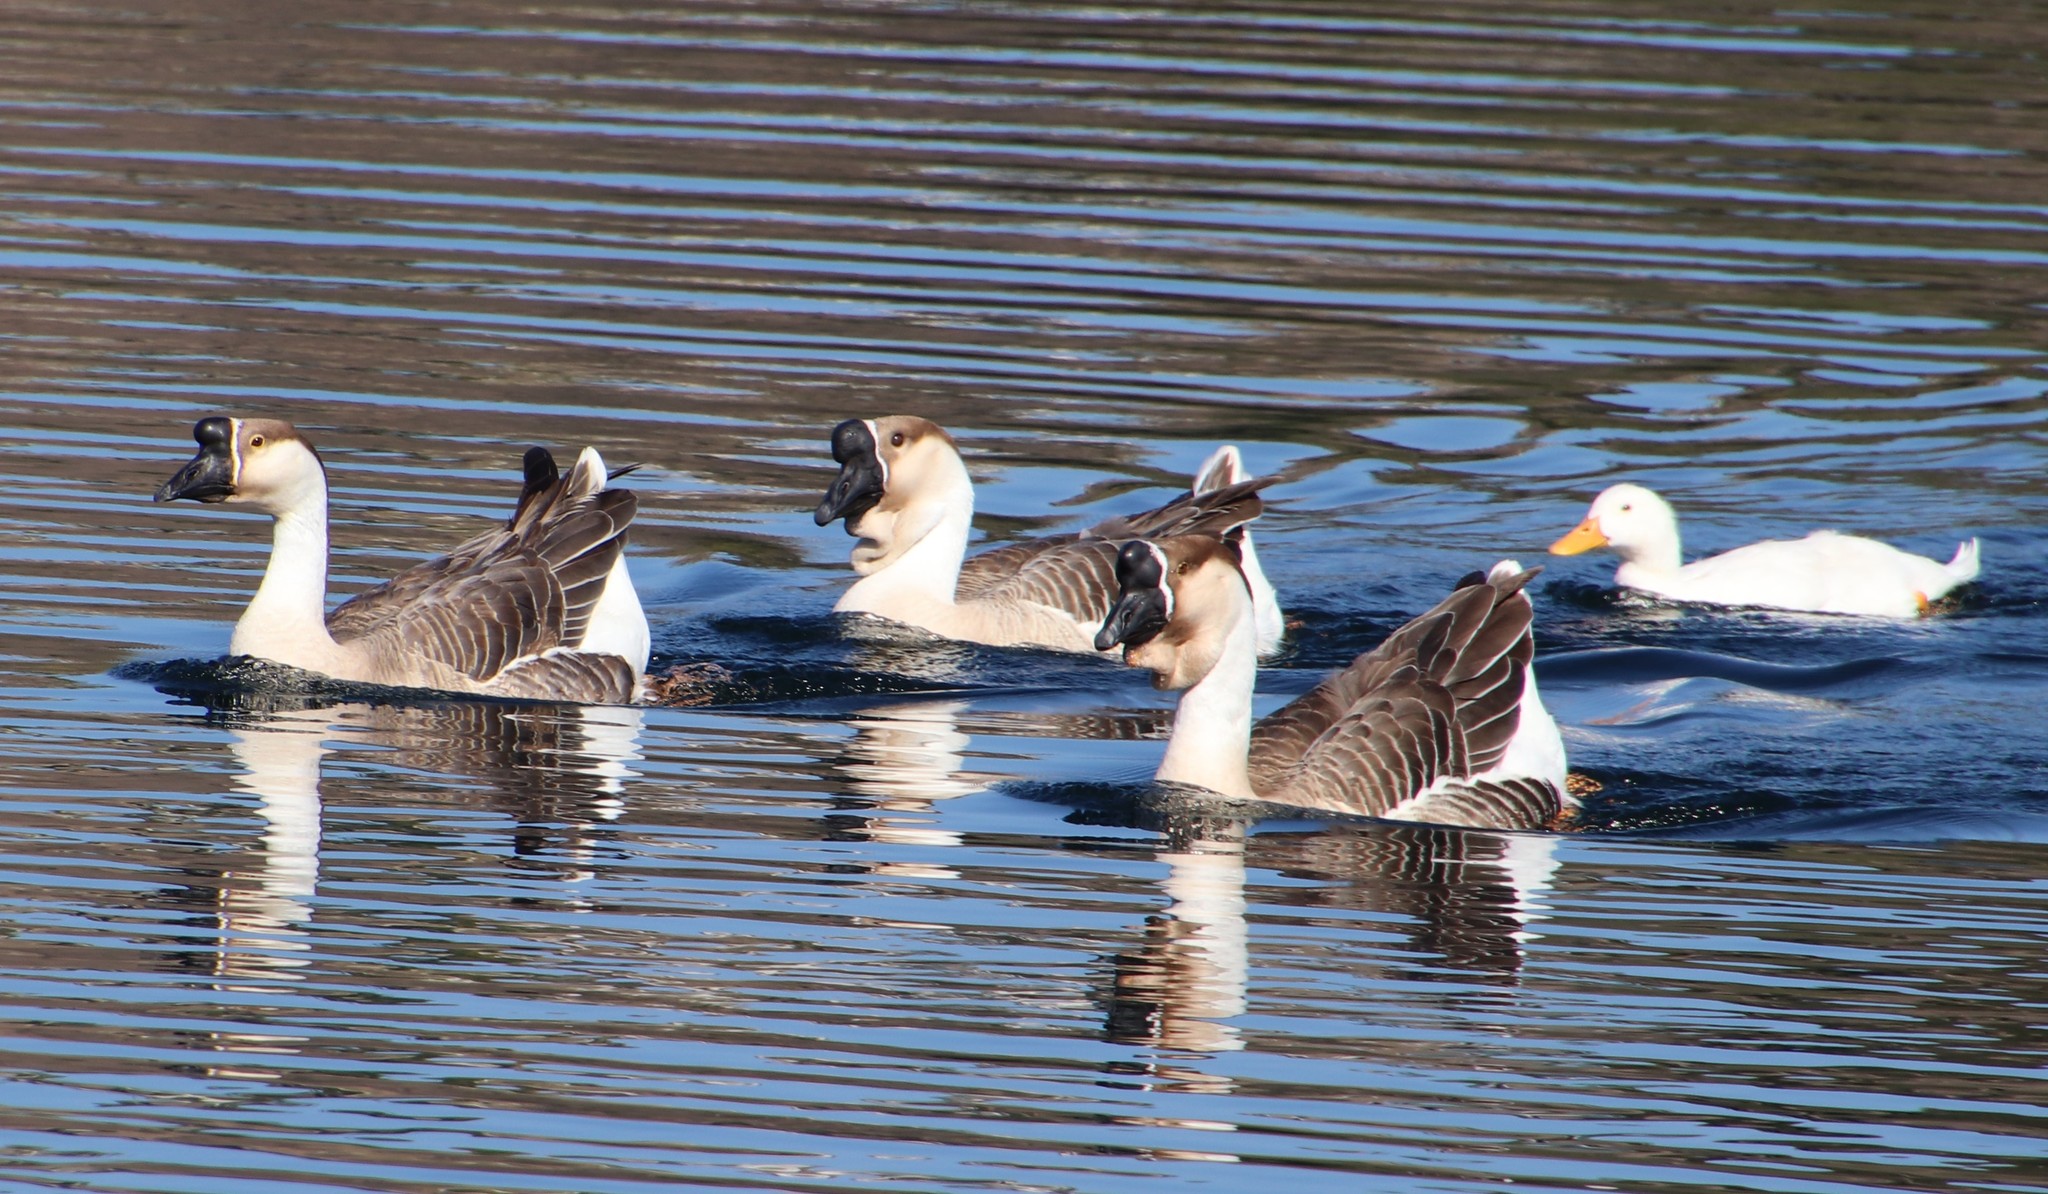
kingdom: Animalia
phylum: Chordata
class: Aves
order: Anseriformes
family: Anatidae
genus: Anser
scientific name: Anser cygnoides
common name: Swan goose
